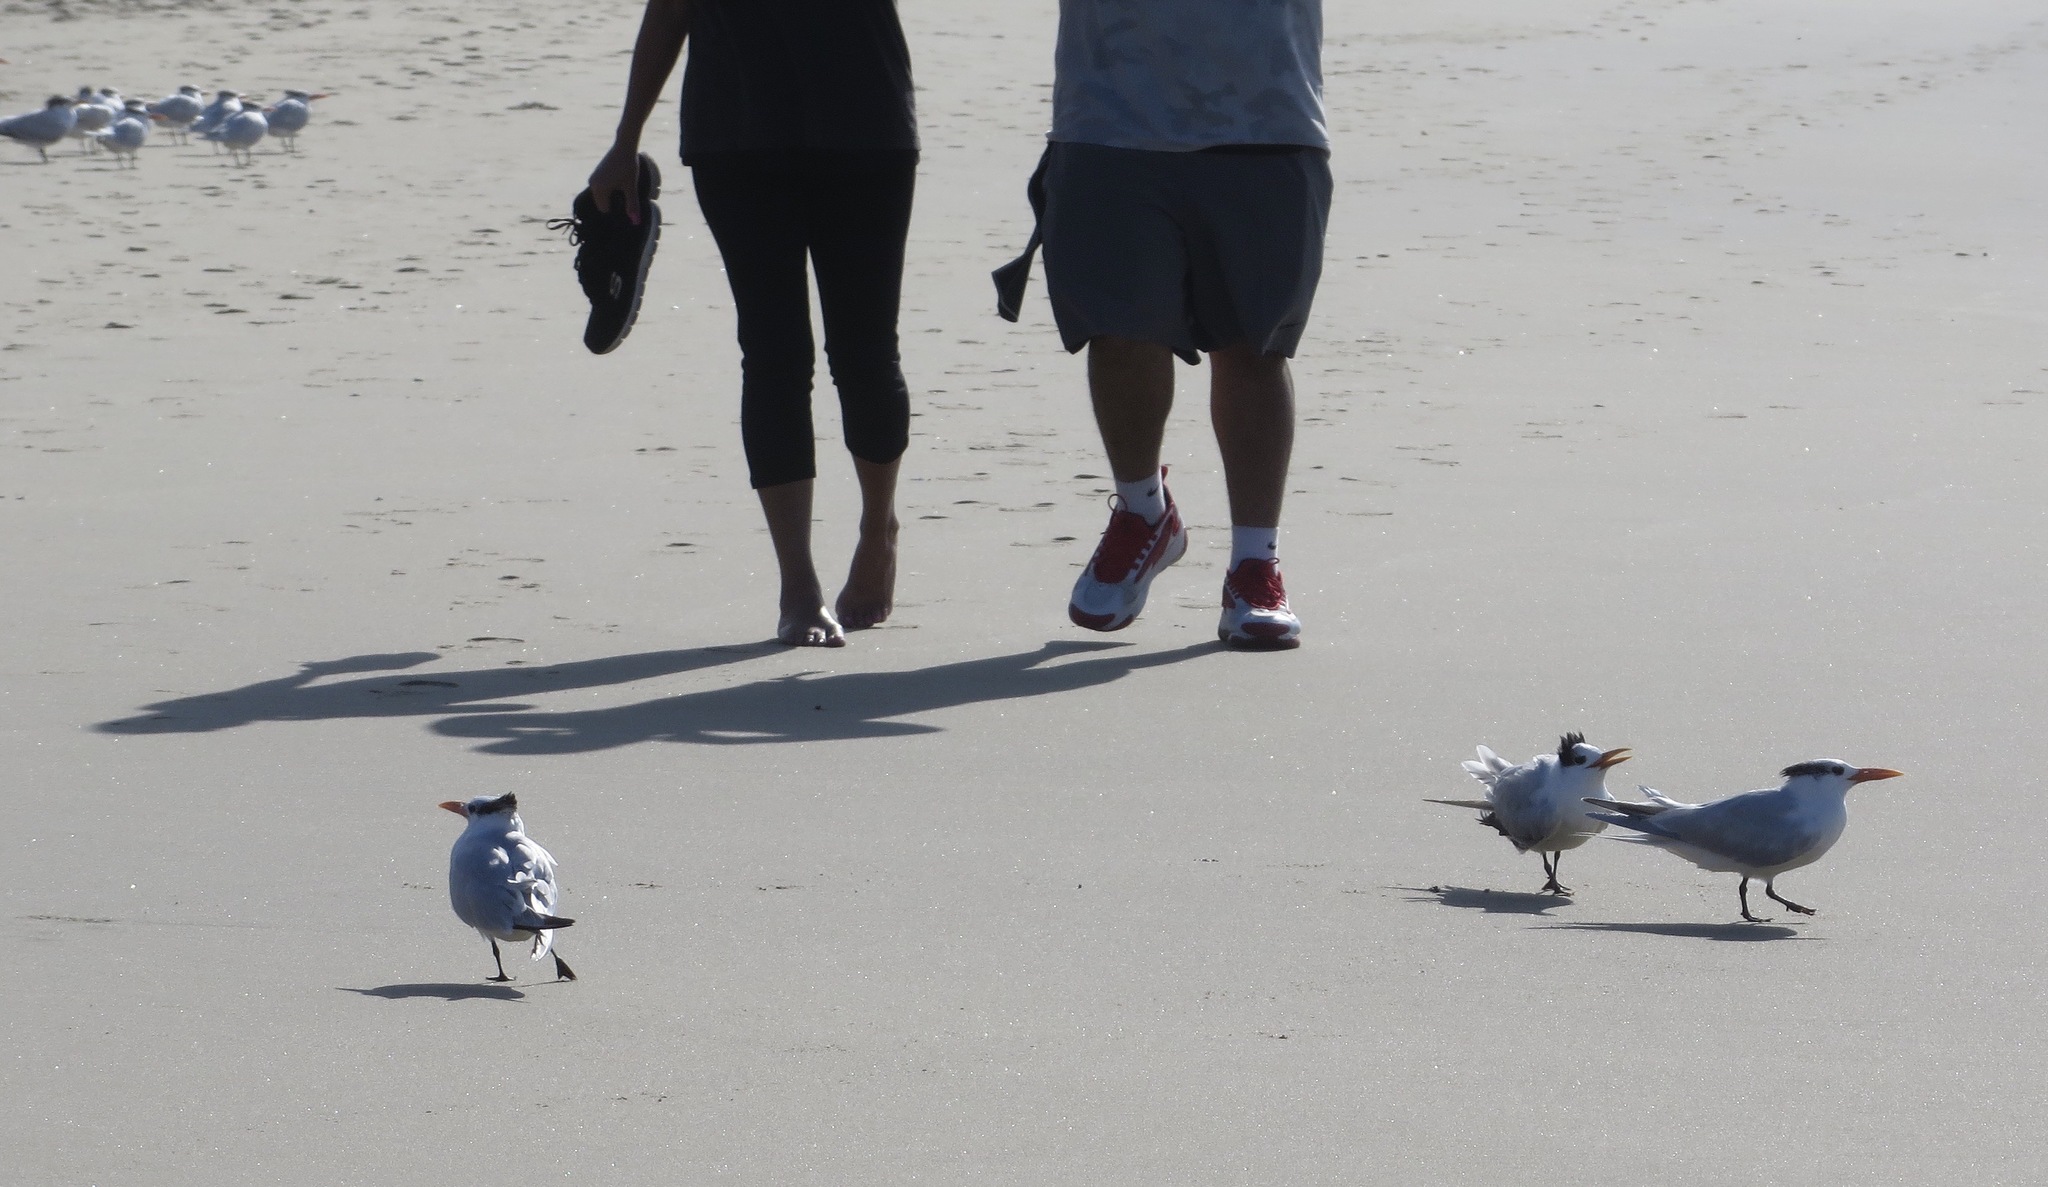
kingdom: Animalia
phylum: Chordata
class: Aves
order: Charadriiformes
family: Laridae
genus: Thalasseus
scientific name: Thalasseus maximus
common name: Royal tern
